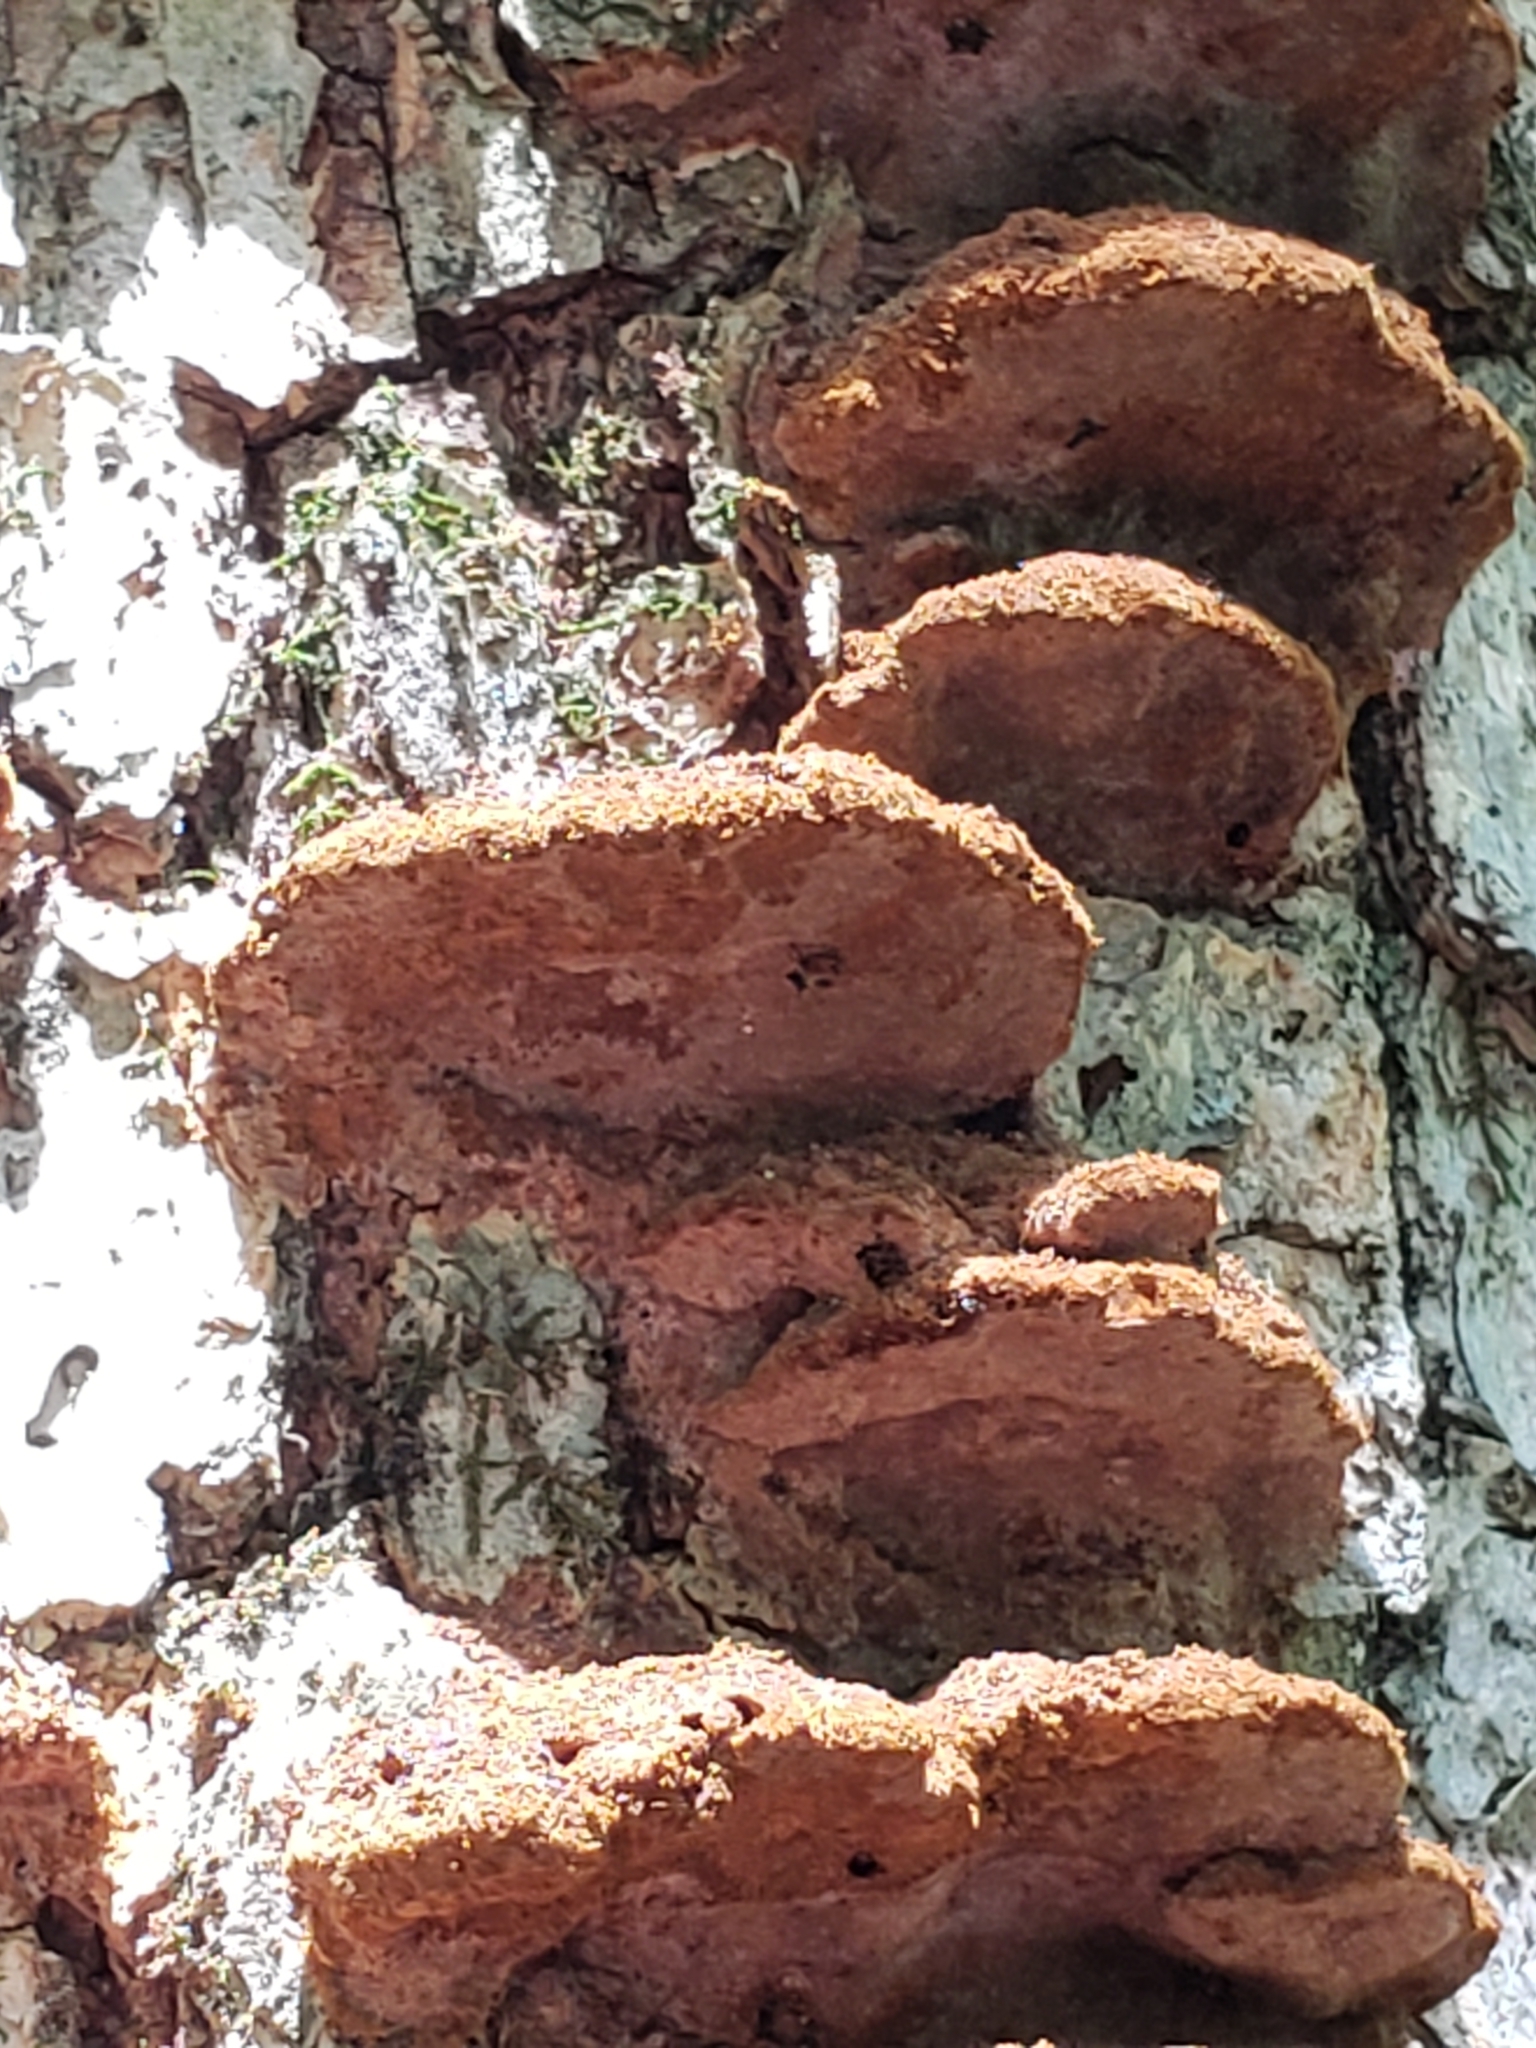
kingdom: Fungi
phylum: Basidiomycota
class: Agaricomycetes
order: Hymenochaetales
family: Hymenochaetaceae
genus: Phellinus
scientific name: Phellinus gilvus
